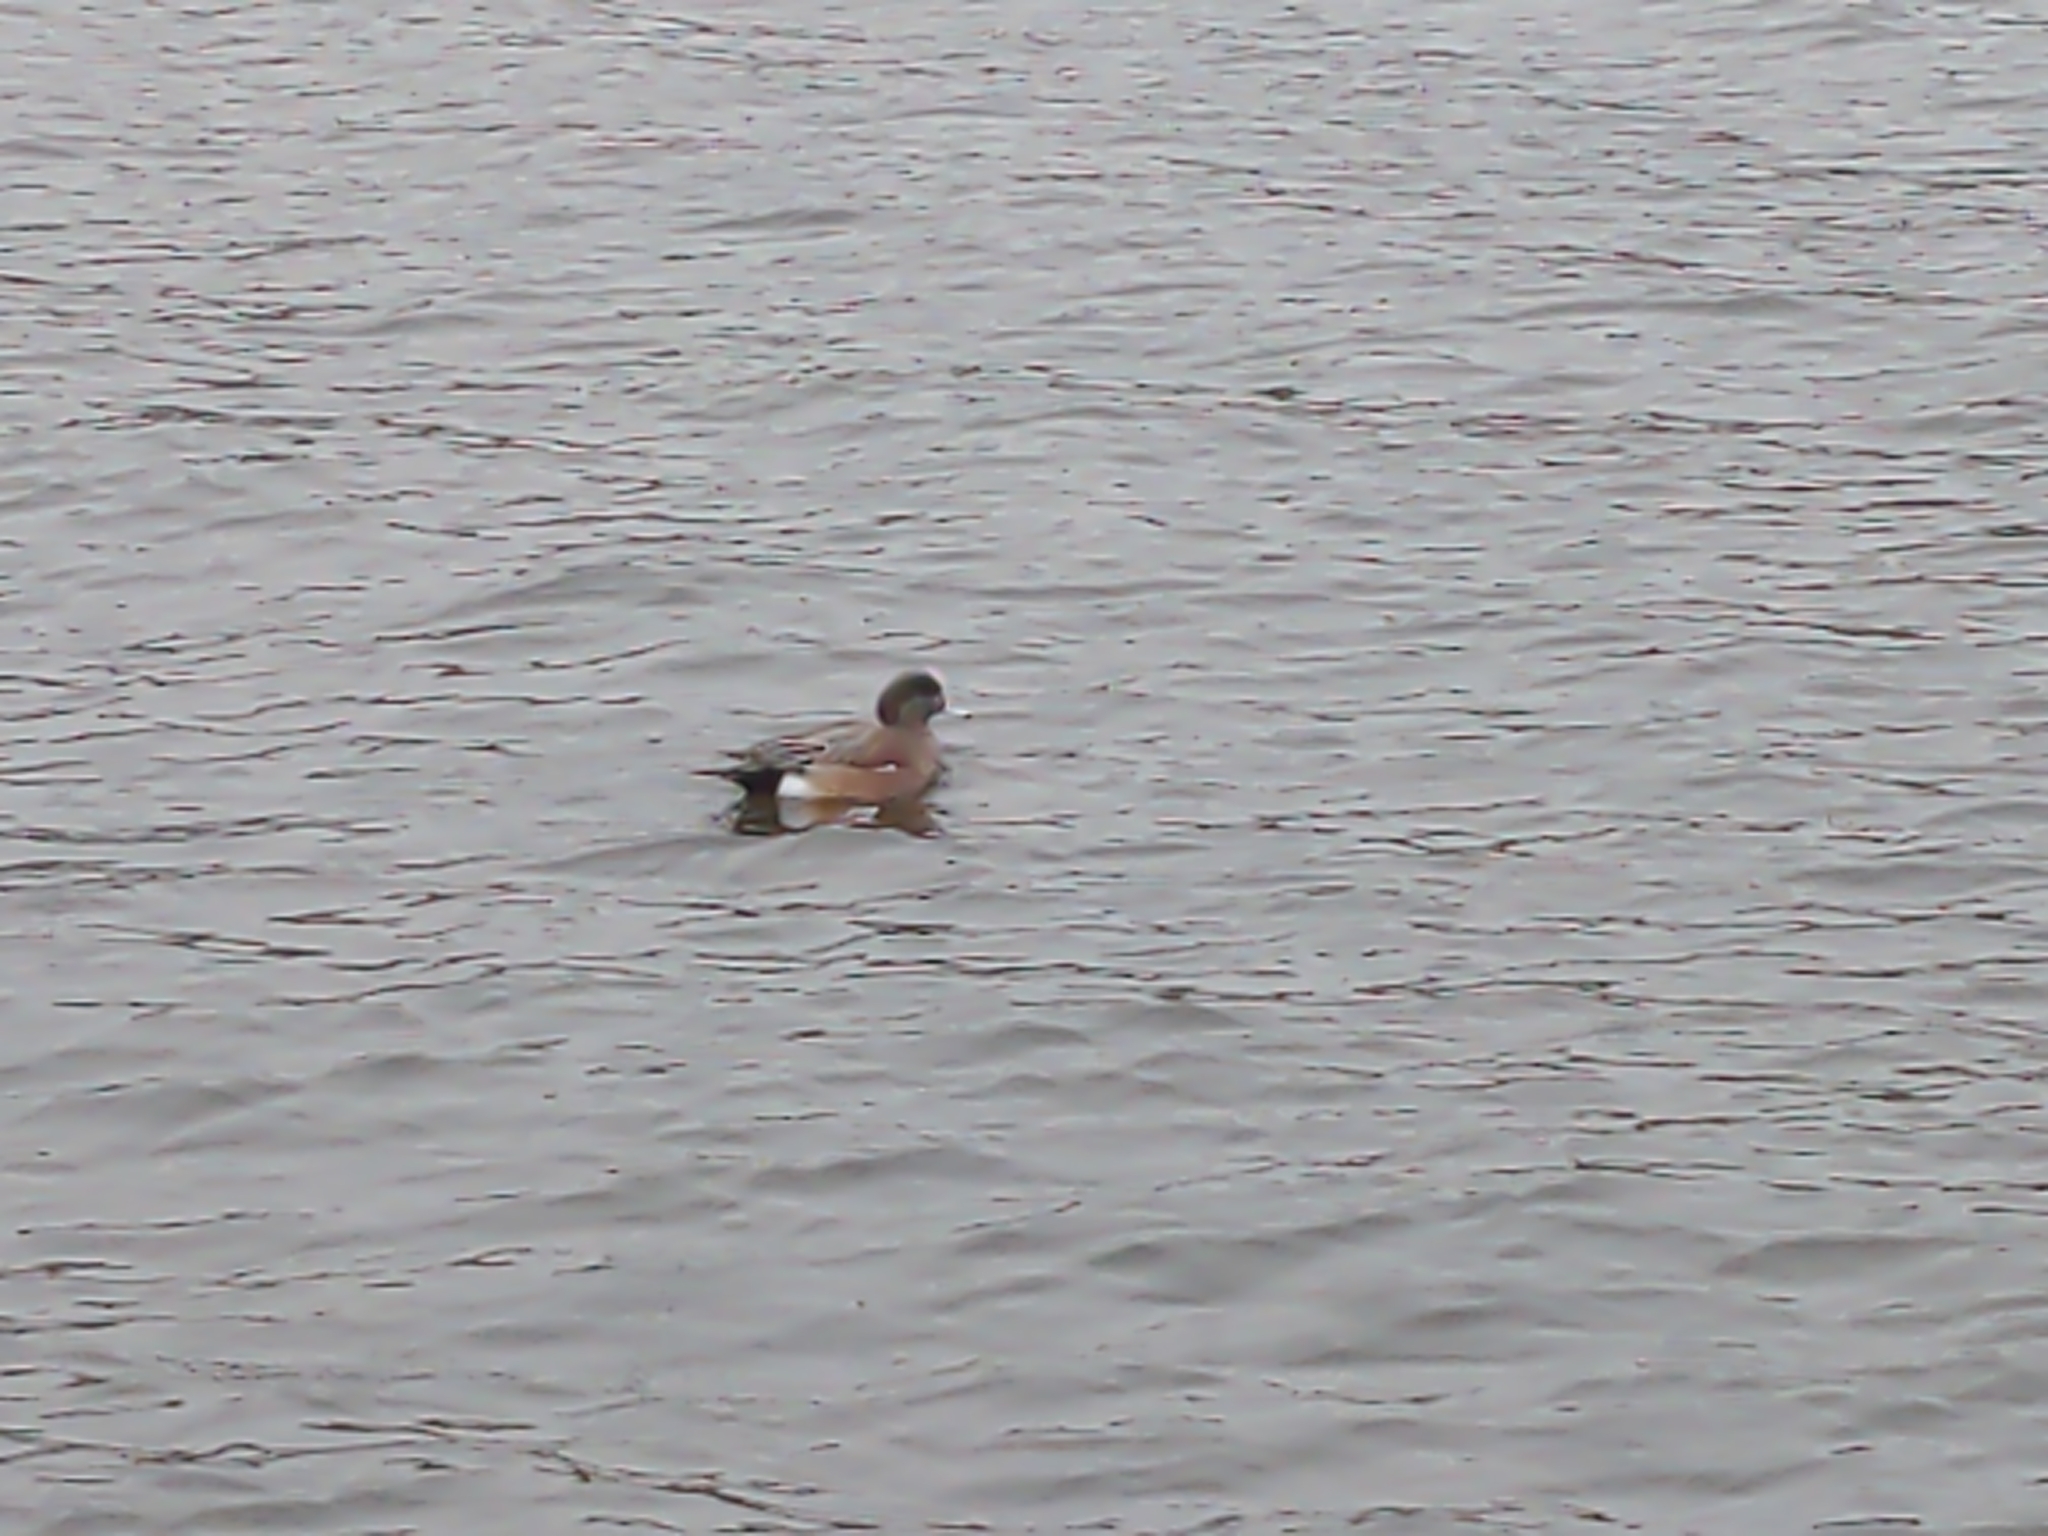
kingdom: Animalia
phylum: Chordata
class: Aves
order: Anseriformes
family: Anatidae
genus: Mareca
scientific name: Mareca americana
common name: American wigeon
